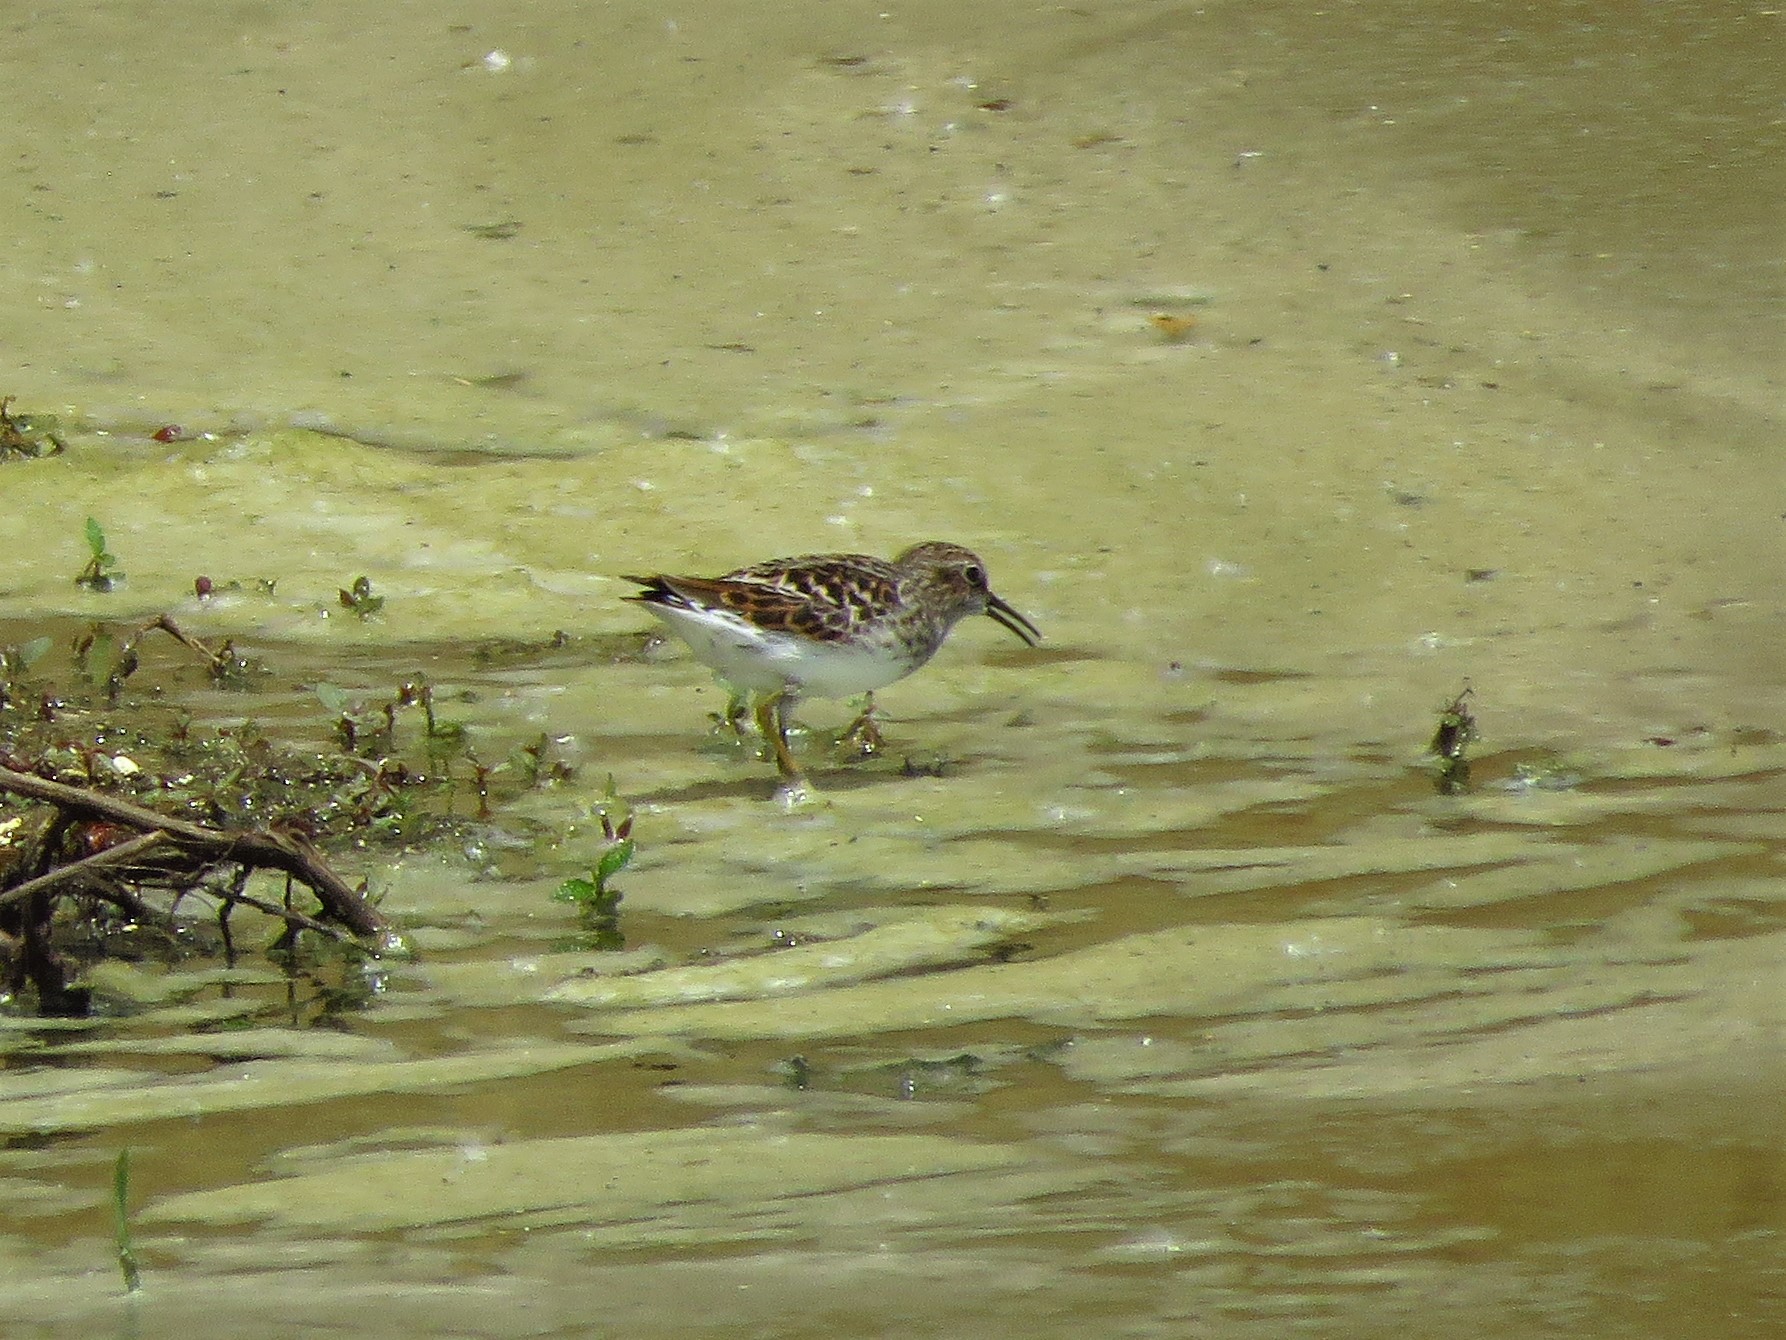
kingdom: Animalia
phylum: Chordata
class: Aves
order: Charadriiformes
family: Scolopacidae
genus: Calidris
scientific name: Calidris minutilla
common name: Least sandpiper
